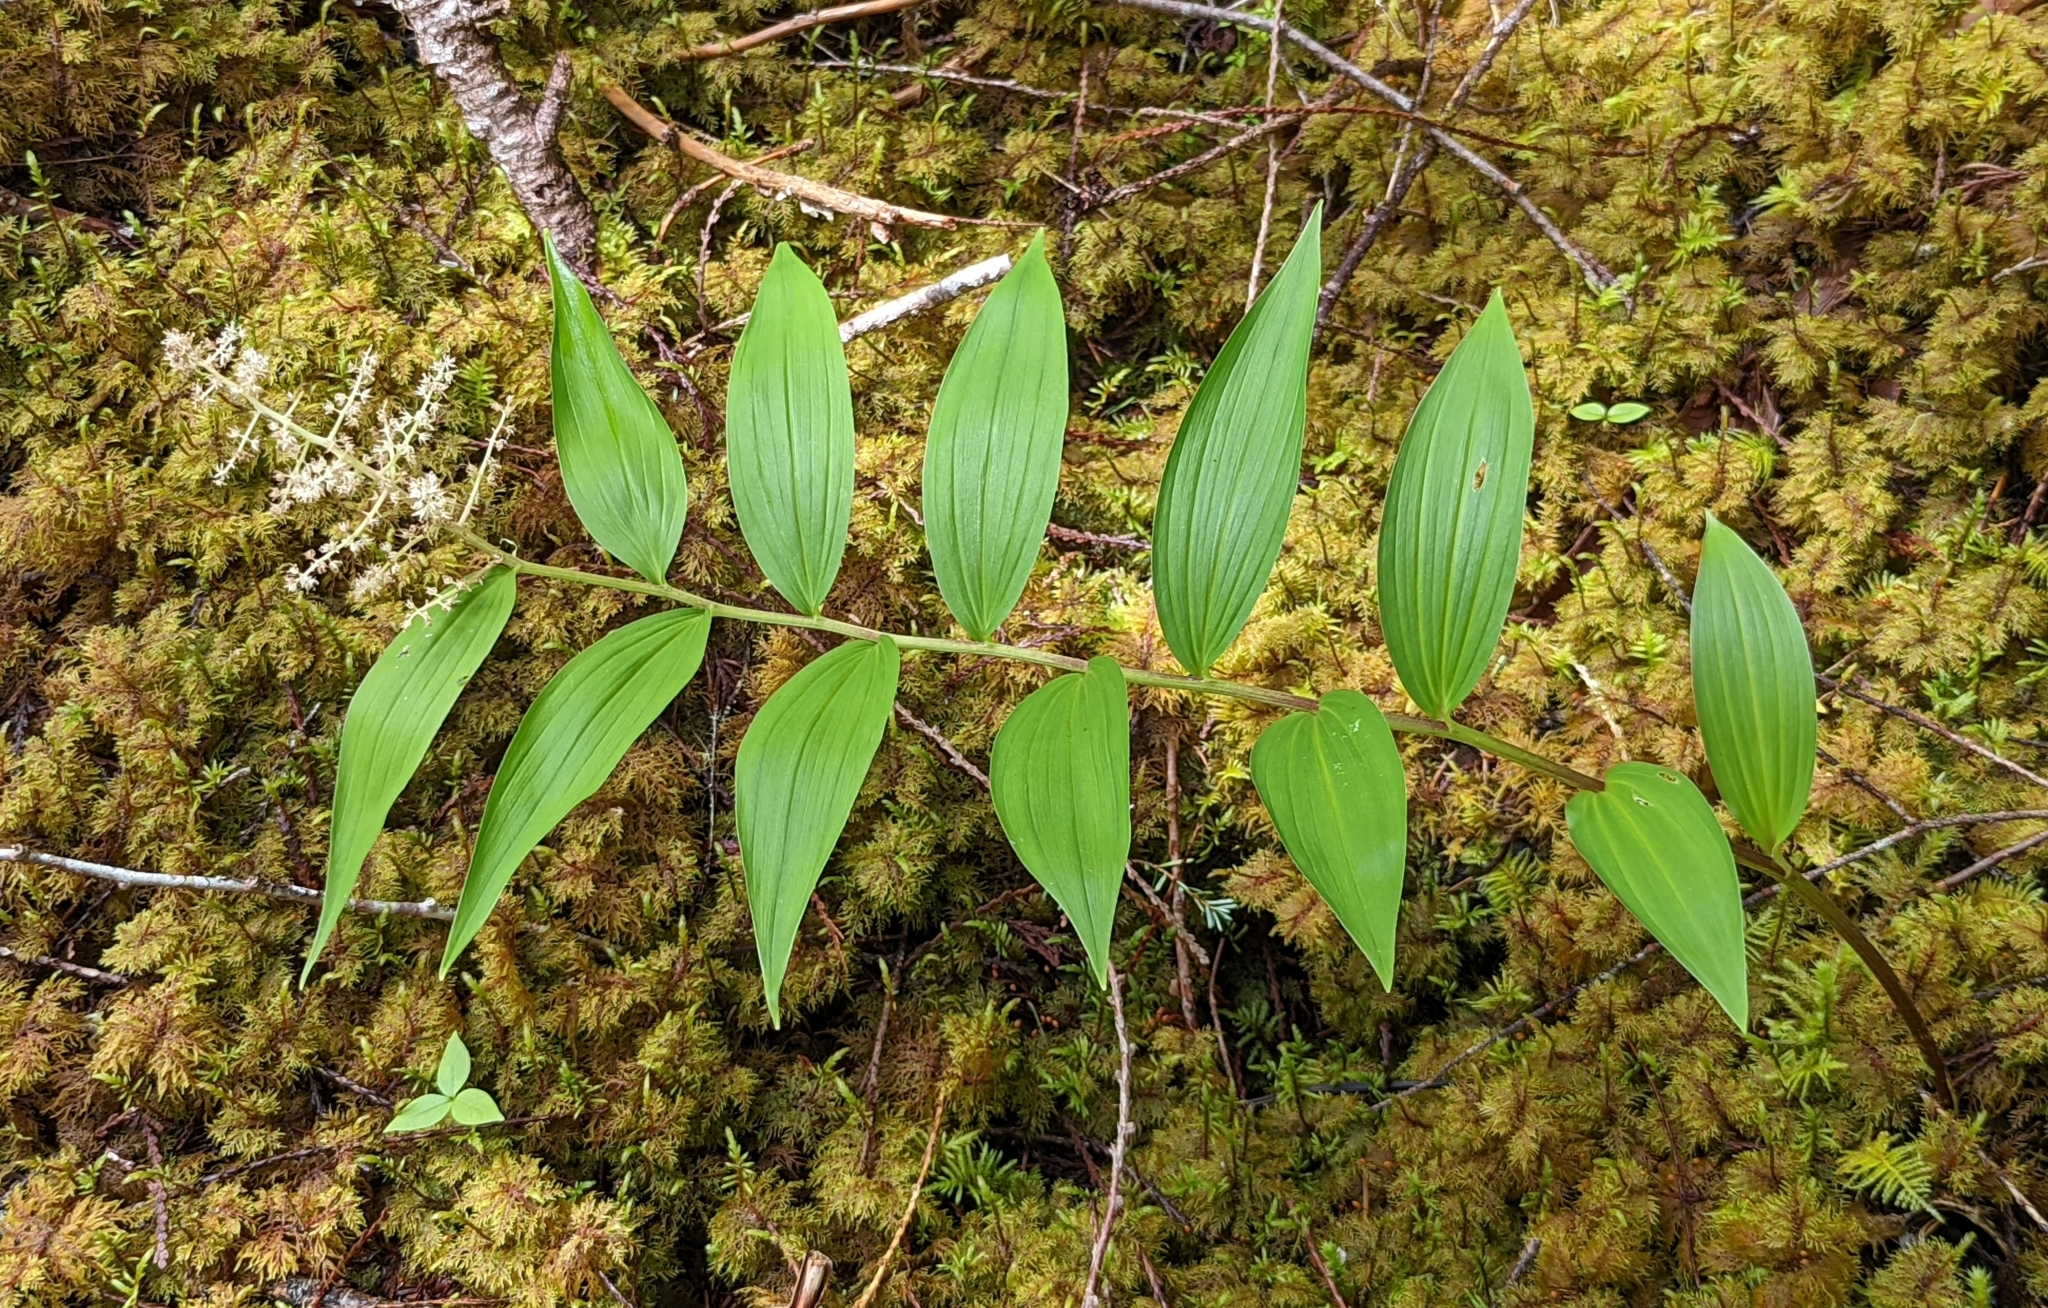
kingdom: Plantae
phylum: Tracheophyta
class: Liliopsida
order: Asparagales
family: Asparagaceae
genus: Maianthemum
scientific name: Maianthemum racemosum
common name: False spikenard
